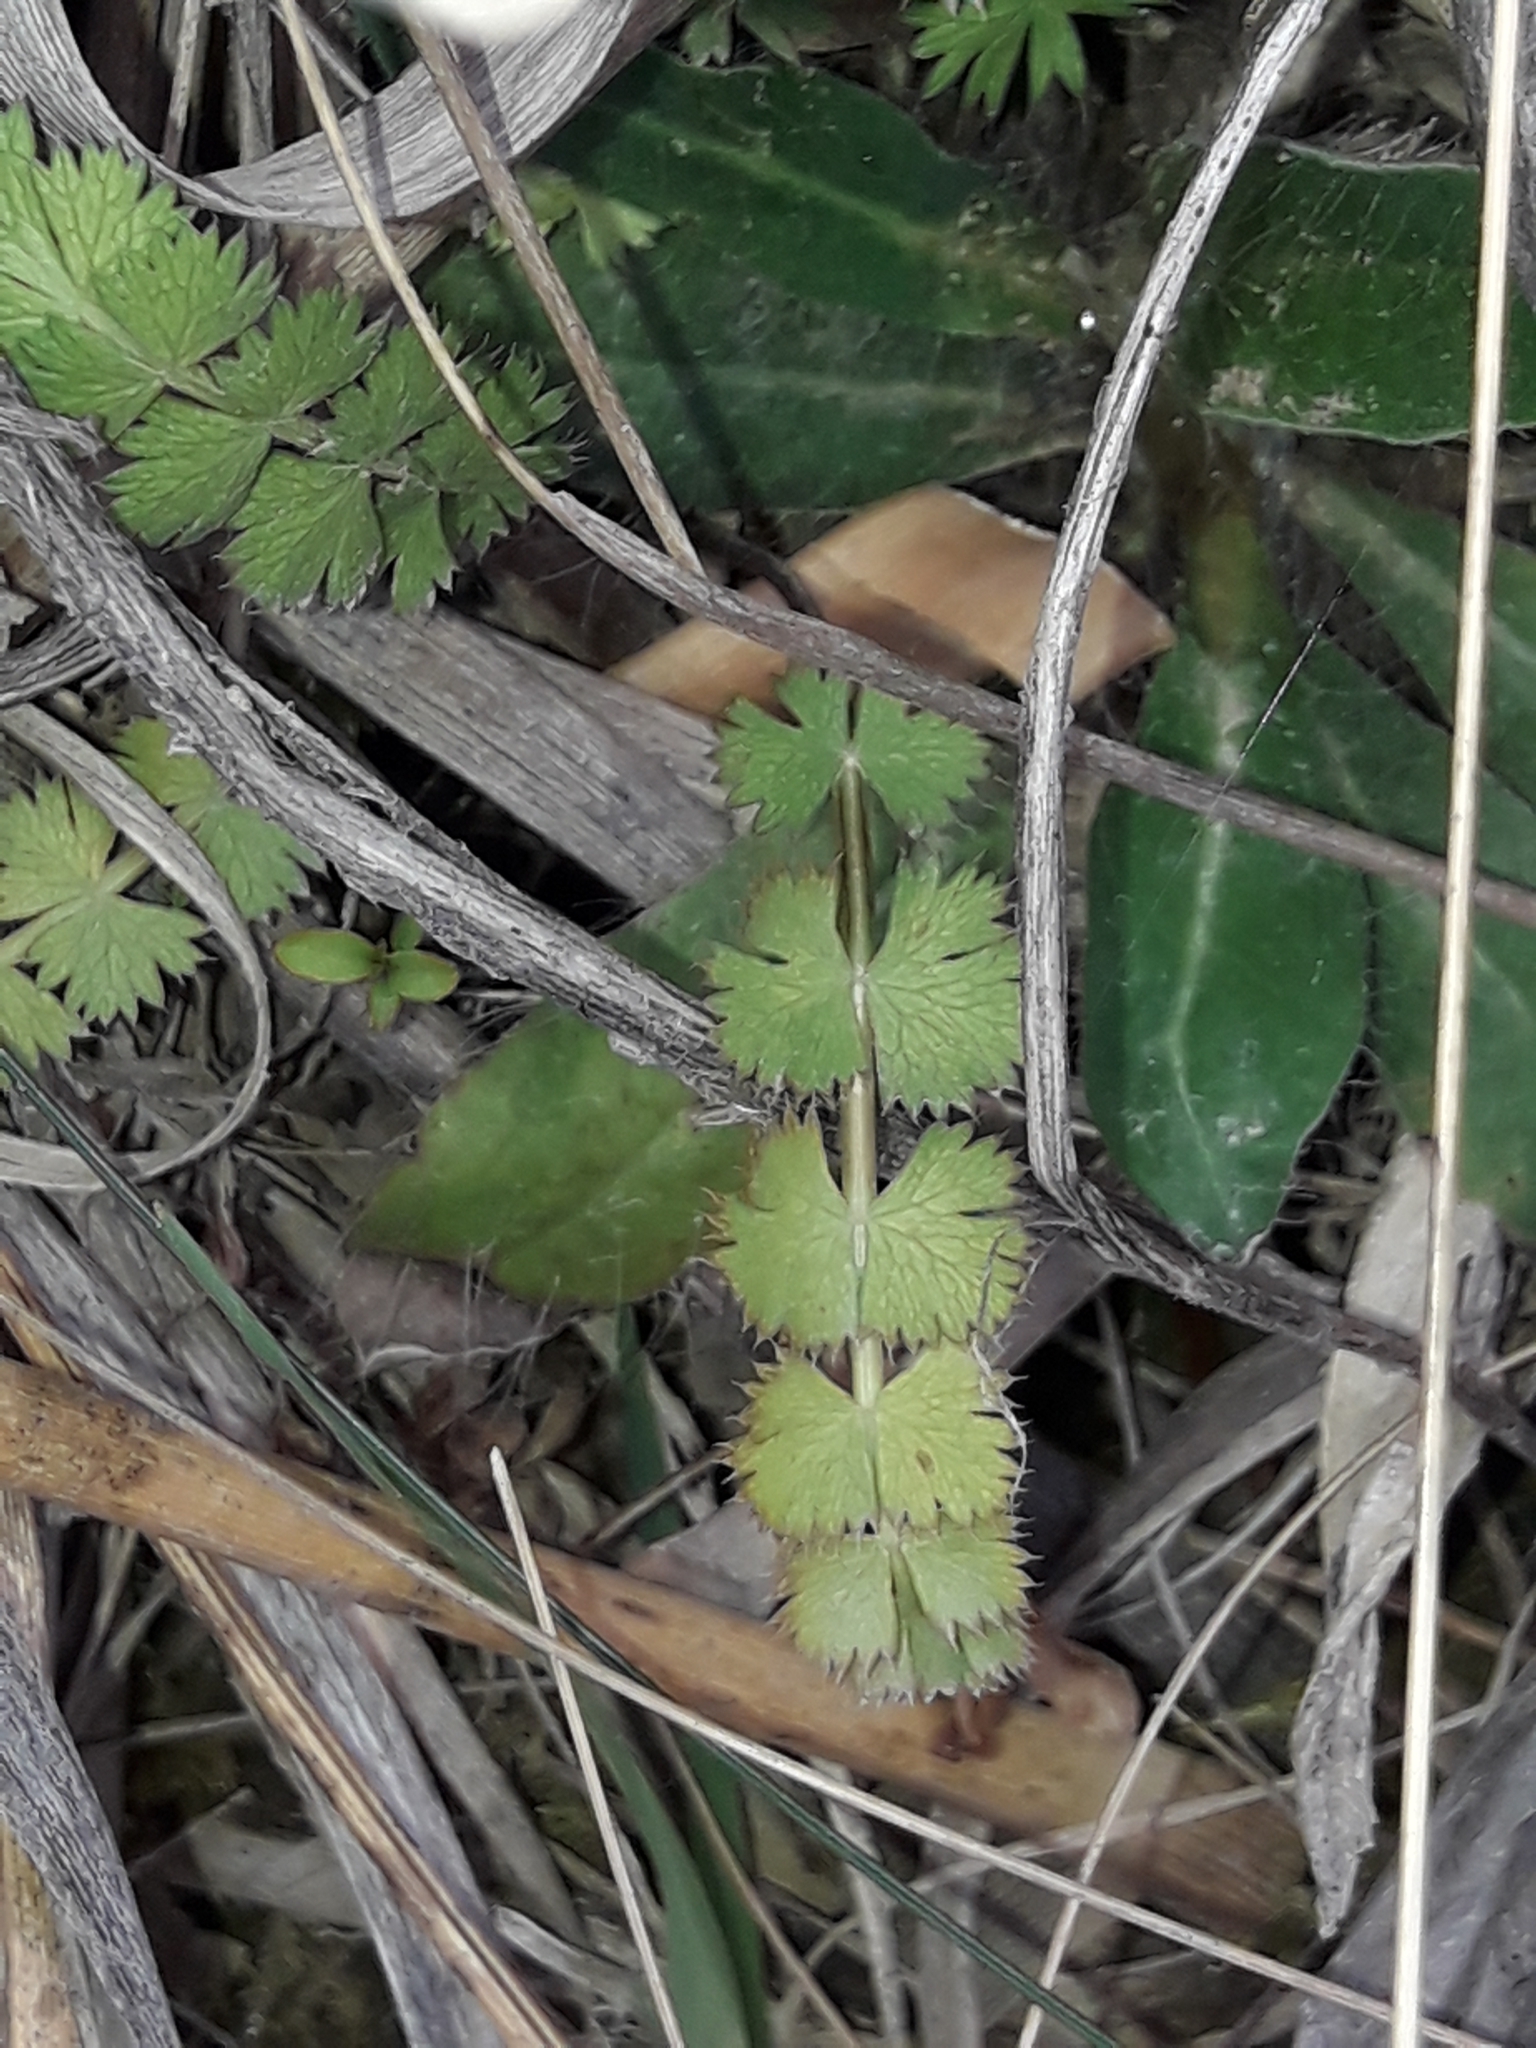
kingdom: Plantae
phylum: Tracheophyta
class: Magnoliopsida
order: Apiales
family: Apiaceae
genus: Anisotome
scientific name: Anisotome aromatica
